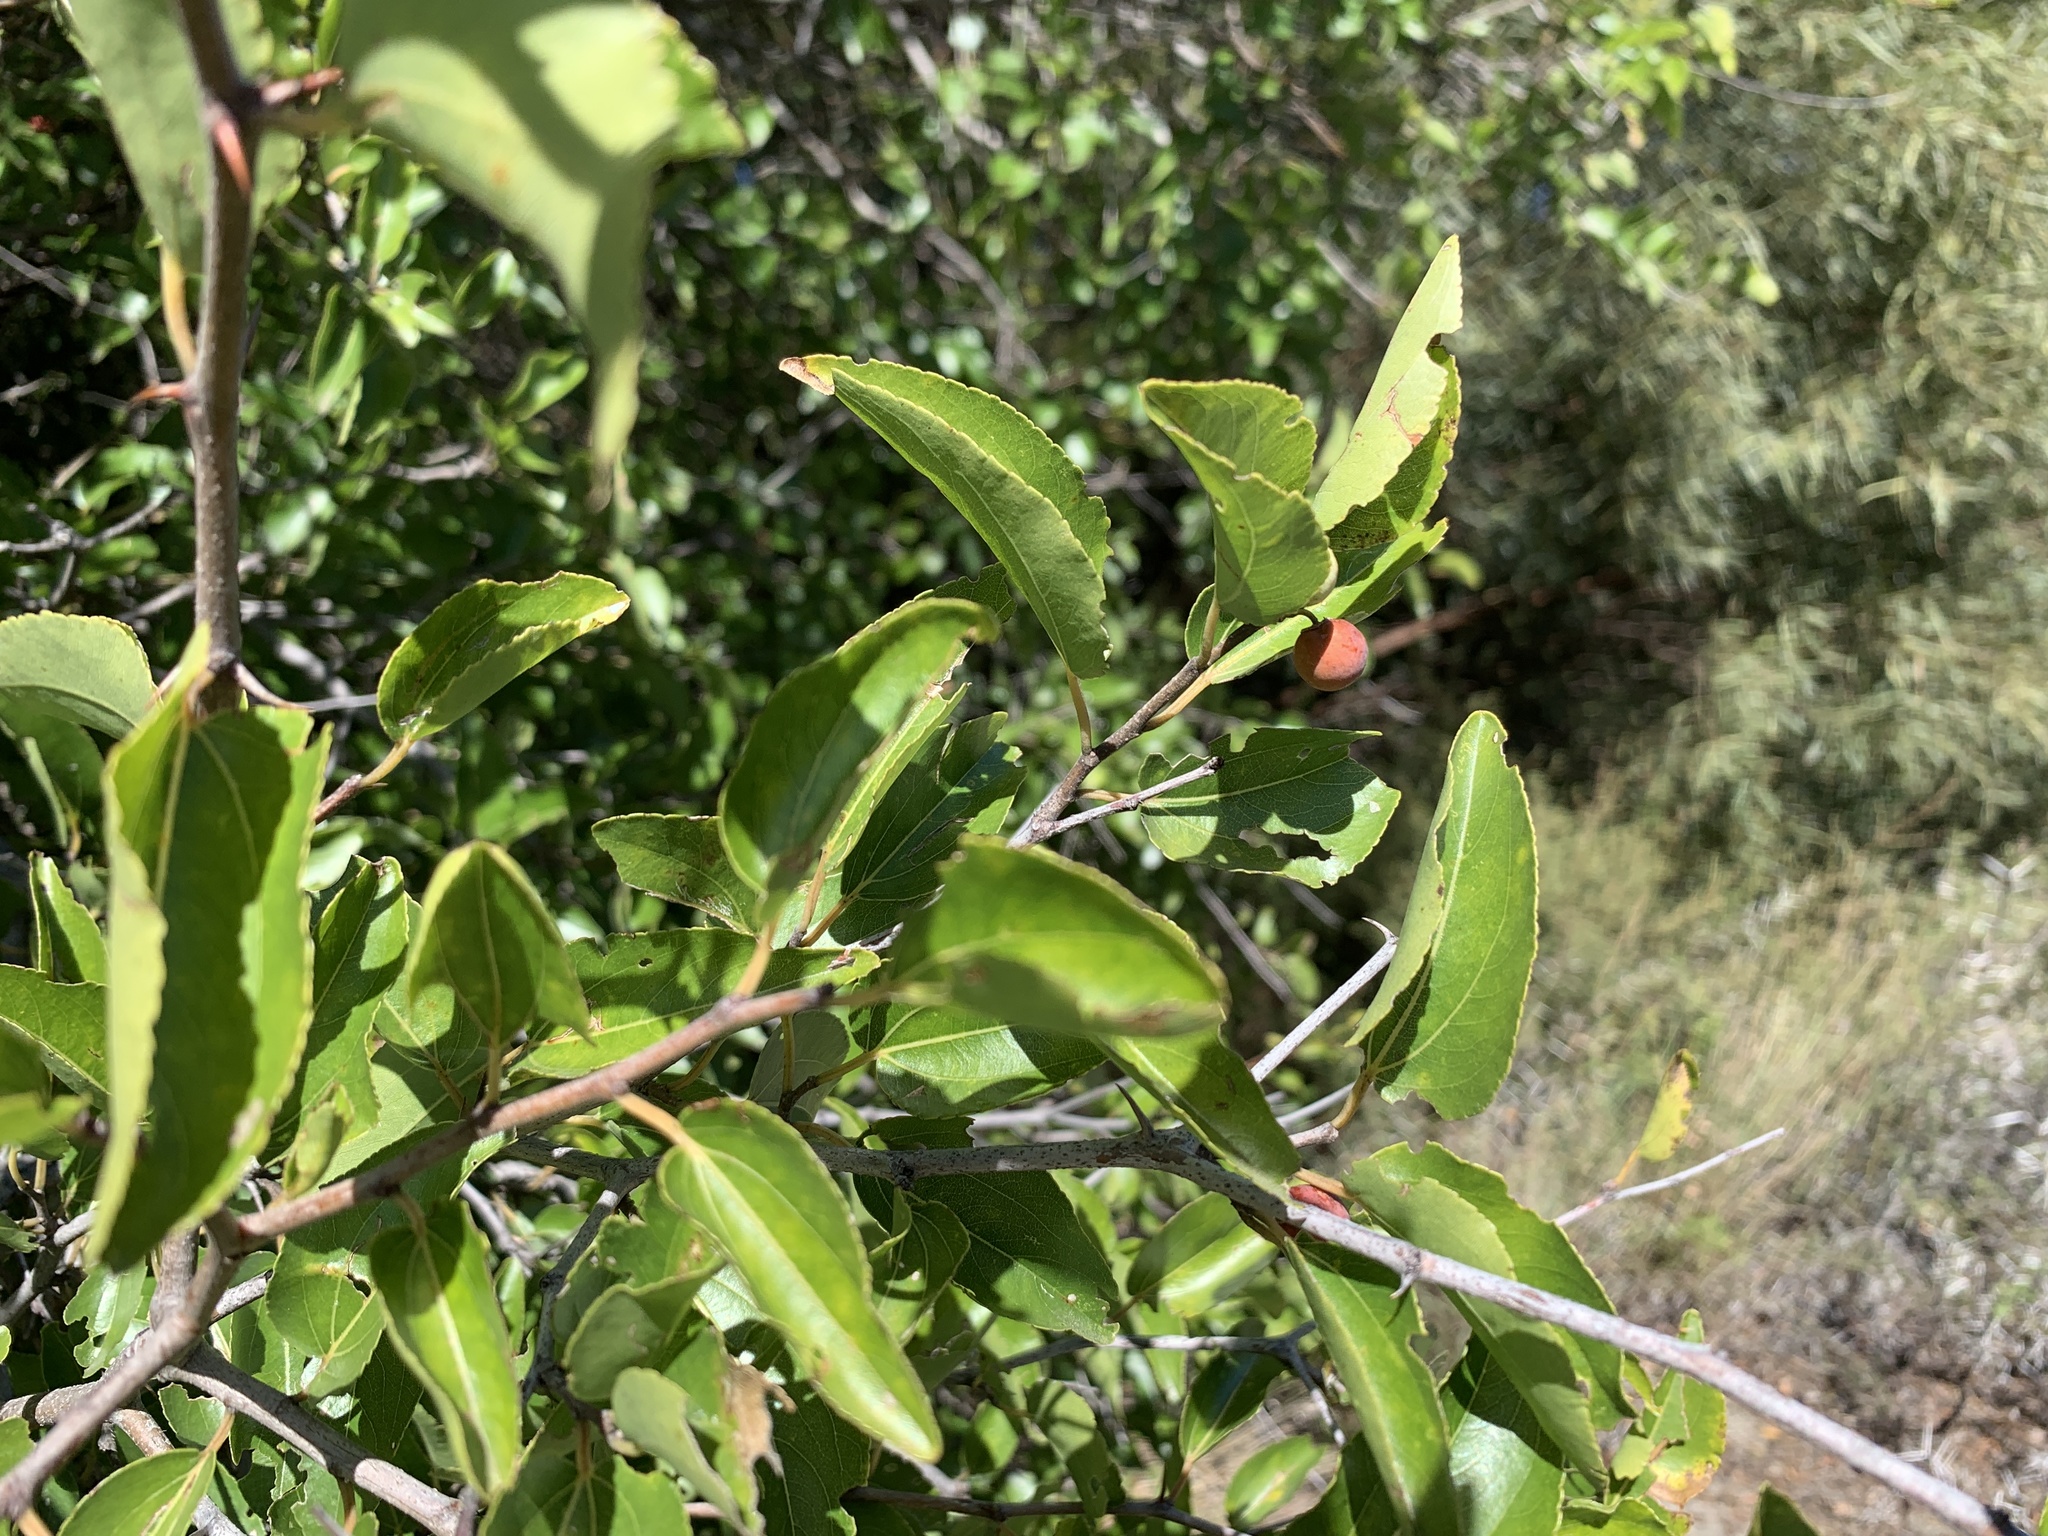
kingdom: Plantae
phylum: Tracheophyta
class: Magnoliopsida
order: Rosales
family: Rhamnaceae
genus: Ziziphus
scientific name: Ziziphus mucronata
